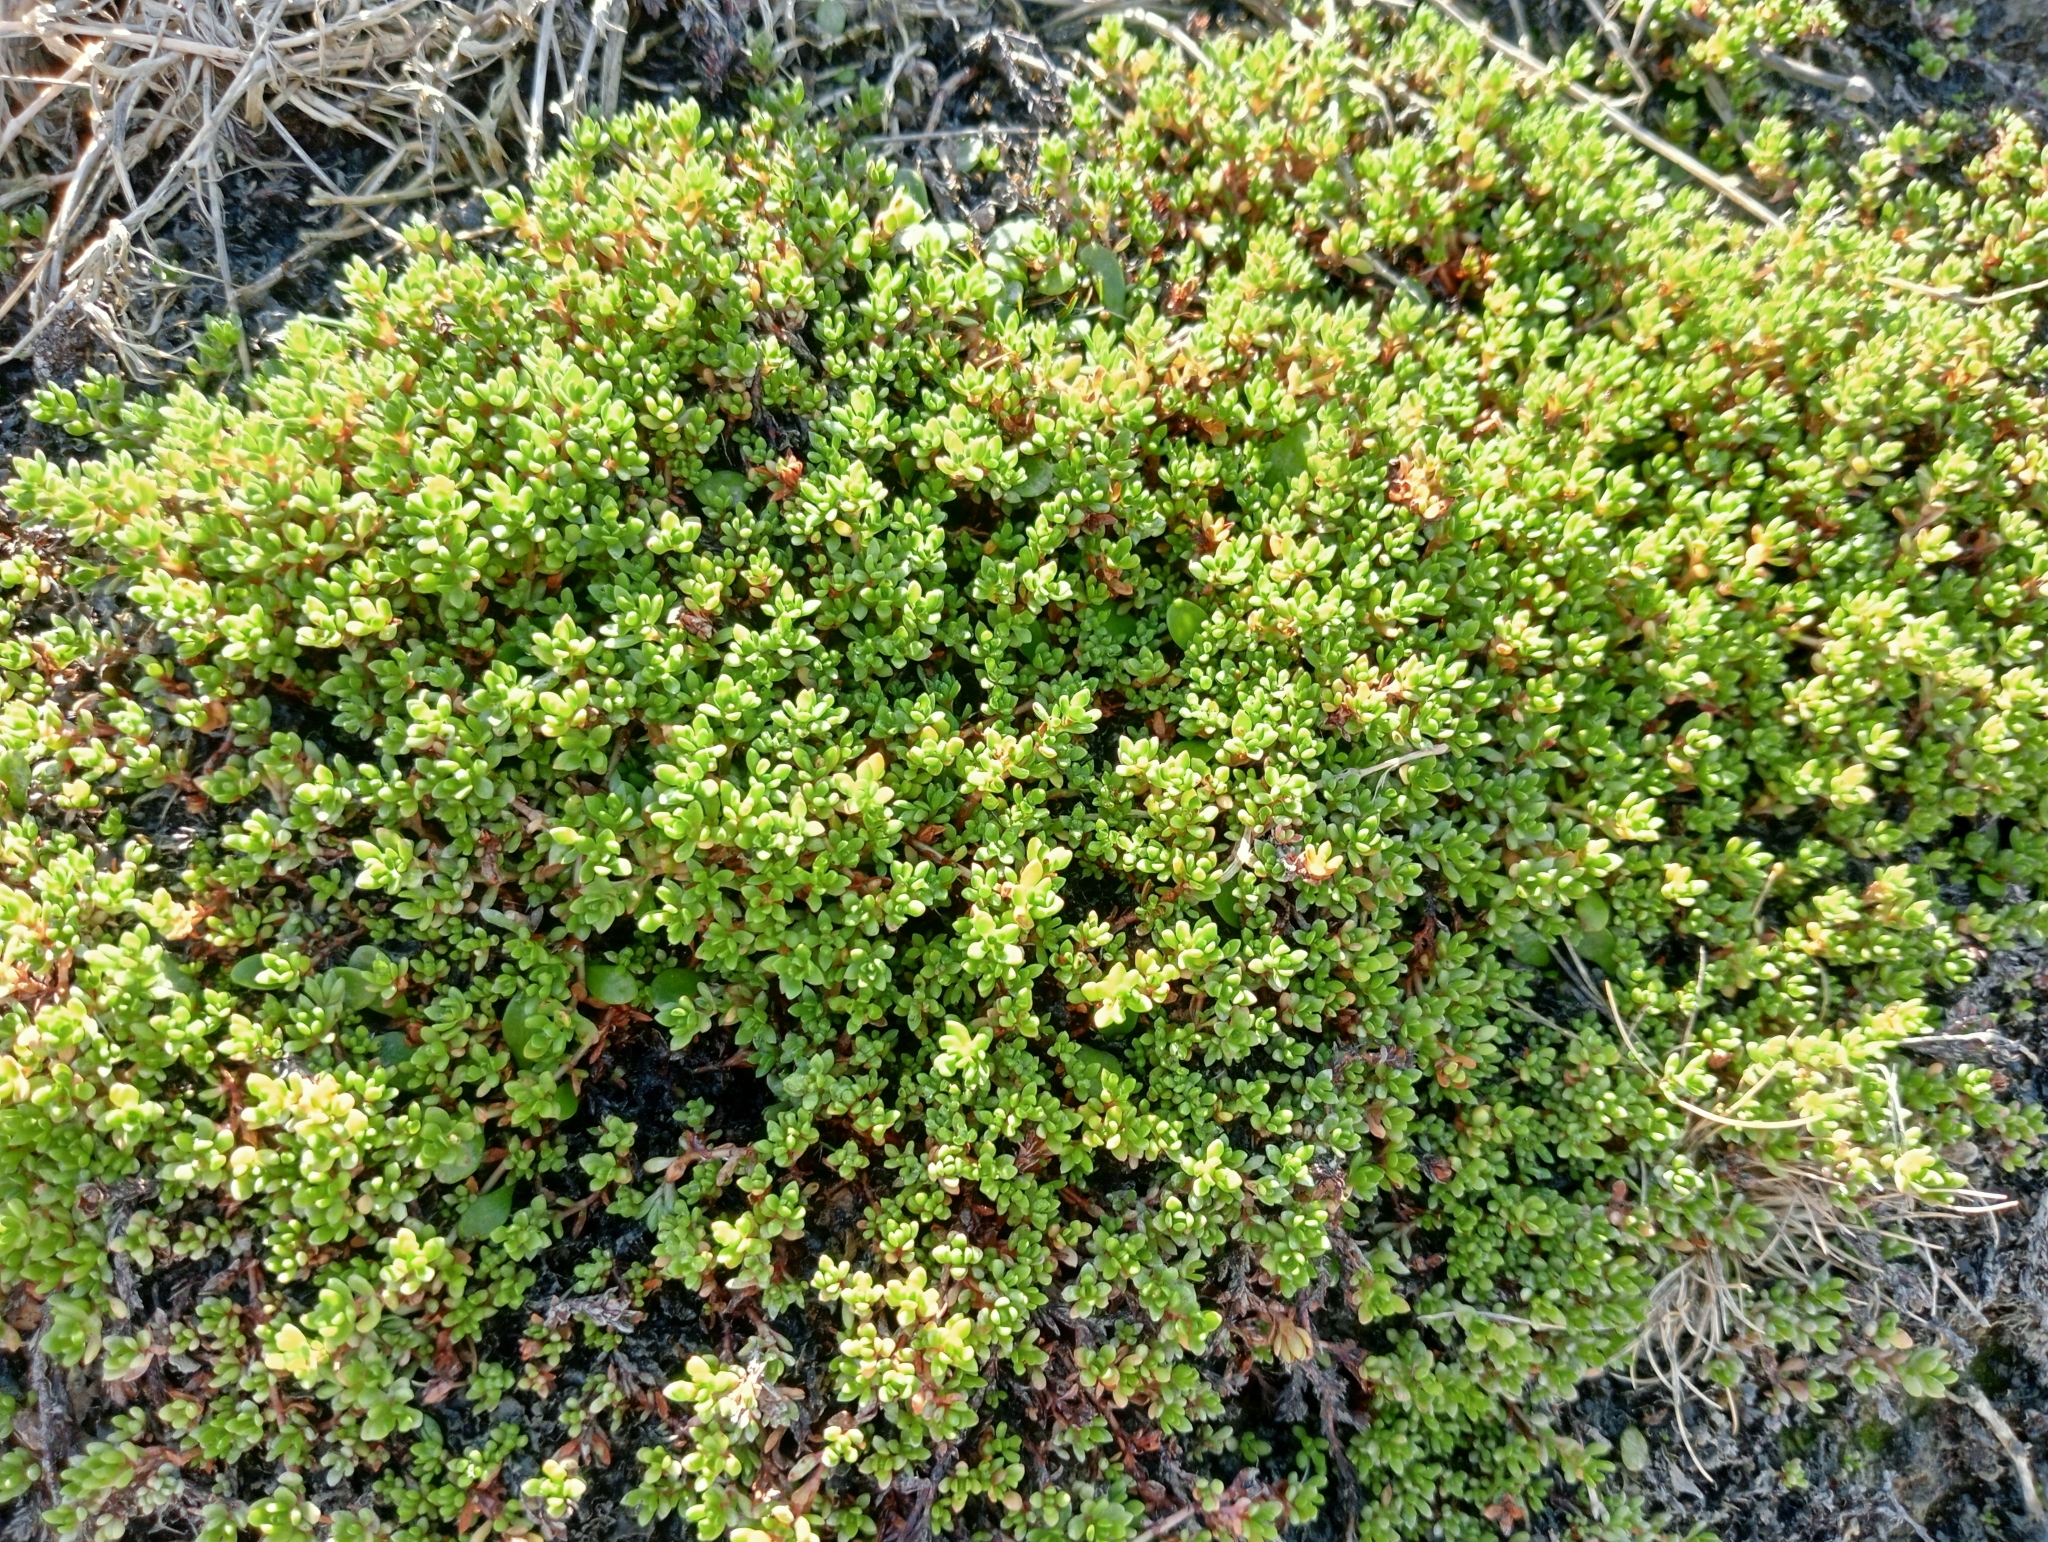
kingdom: Plantae
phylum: Tracheophyta
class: Magnoliopsida
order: Saxifragales
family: Crassulaceae
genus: Crassula
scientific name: Crassula moschata
